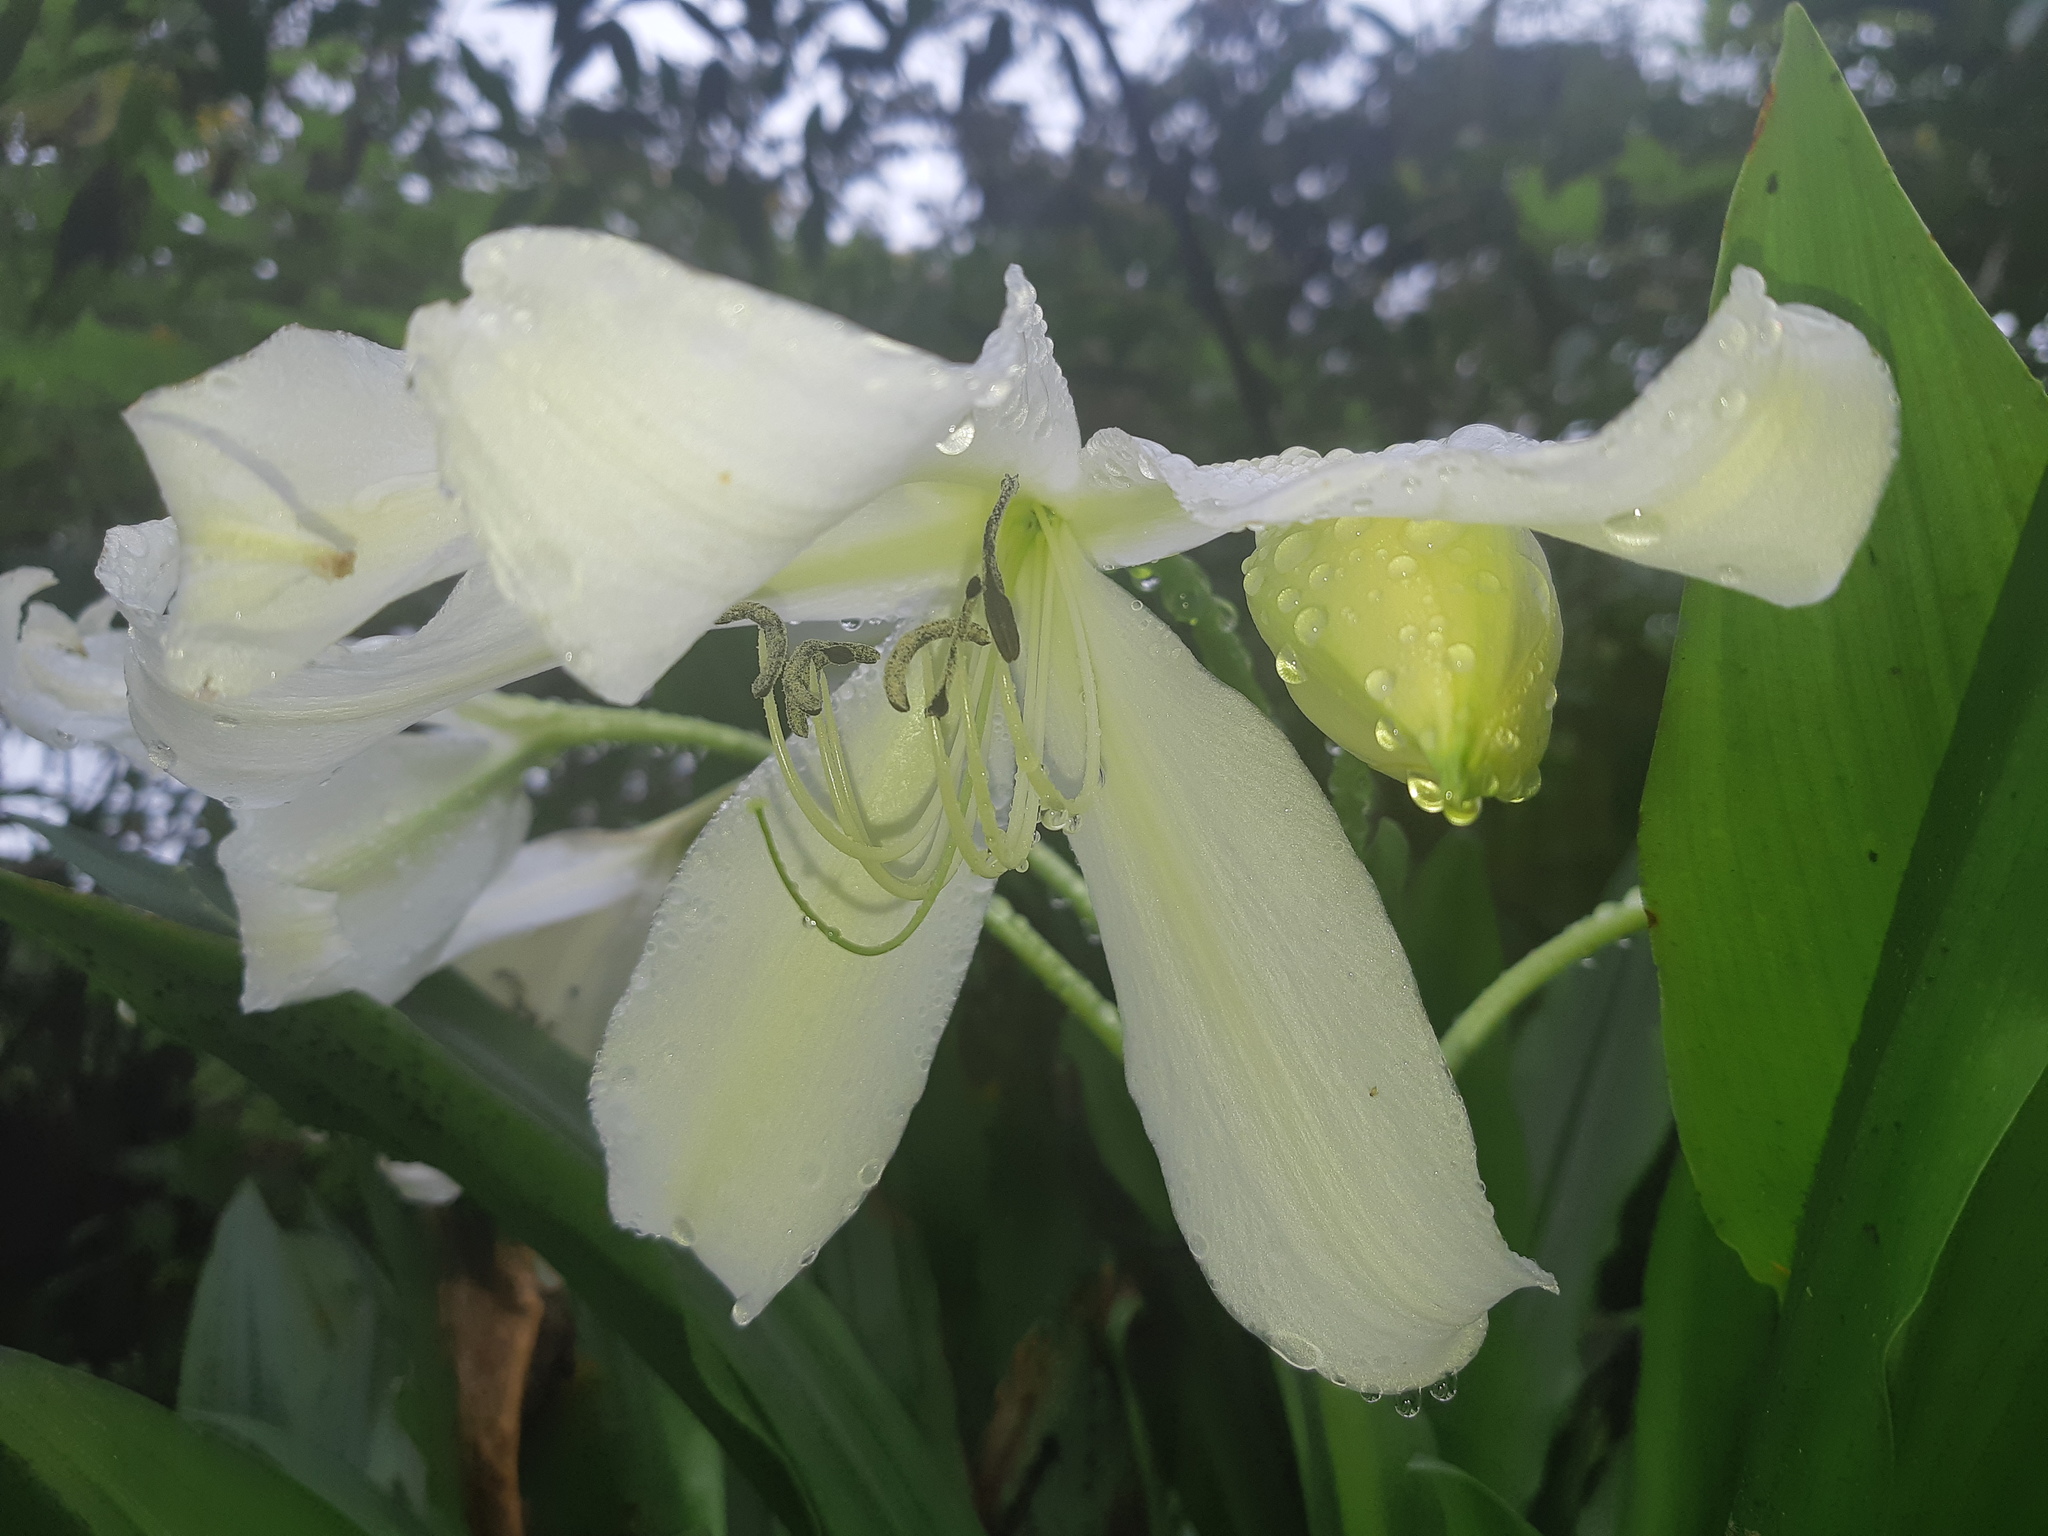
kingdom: Plantae
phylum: Tracheophyta
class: Liliopsida
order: Asparagales
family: Amaryllidaceae
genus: Crinum
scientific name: Crinum jagus
